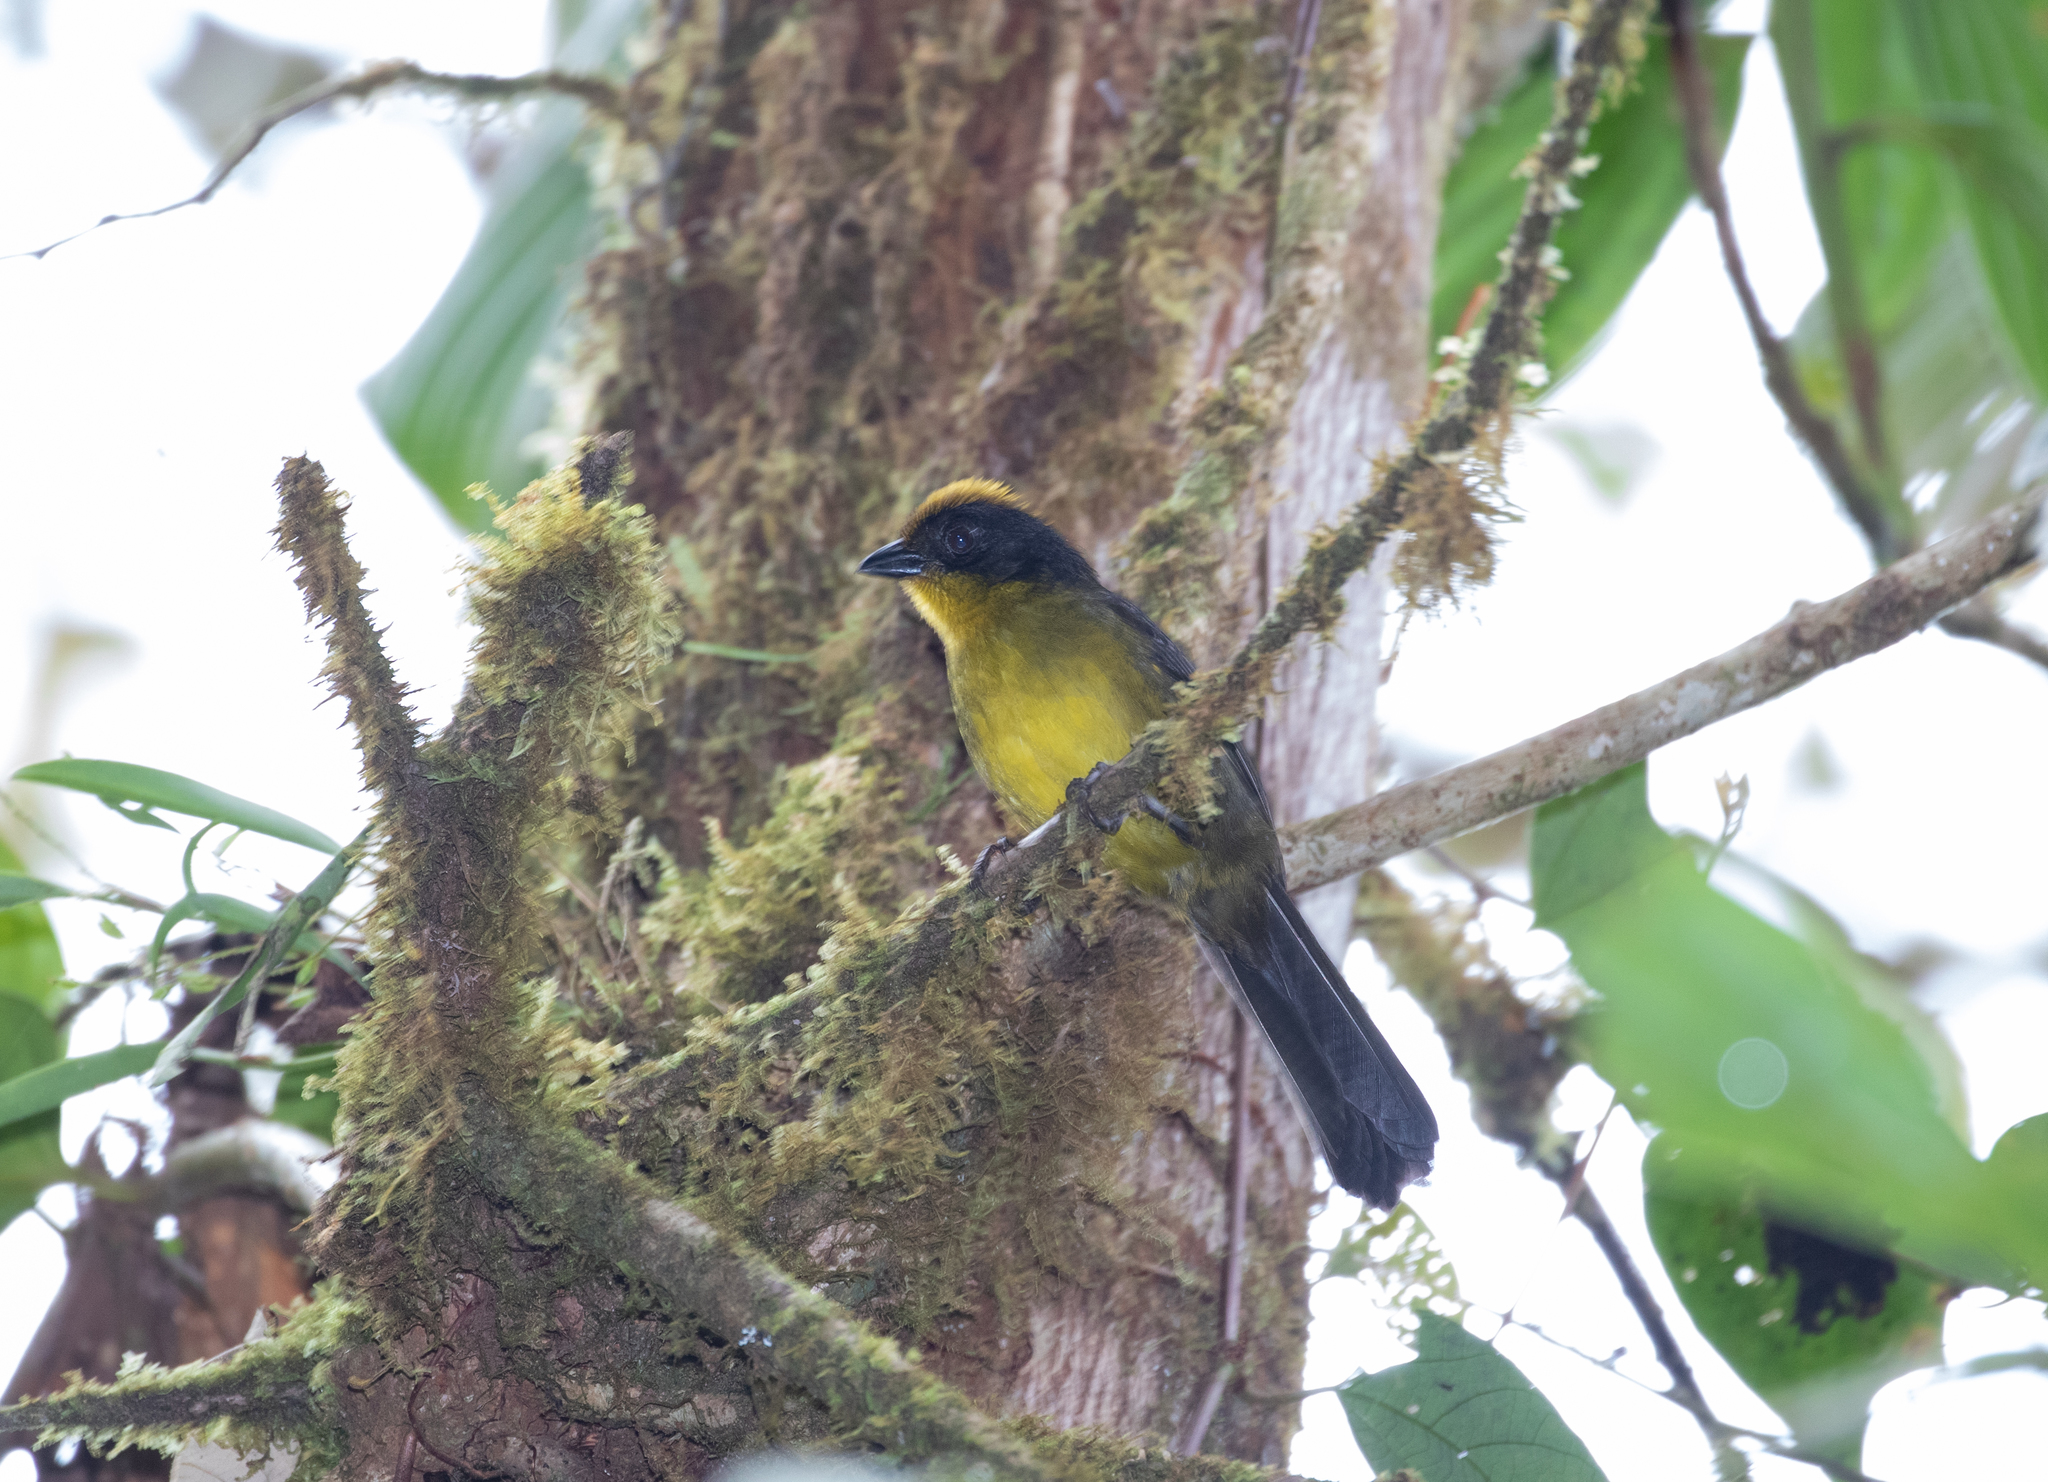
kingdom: Animalia
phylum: Chordata
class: Aves
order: Passeriformes
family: Passerellidae
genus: Atlapetes
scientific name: Atlapetes tricolor
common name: Tricolored brushfinch
